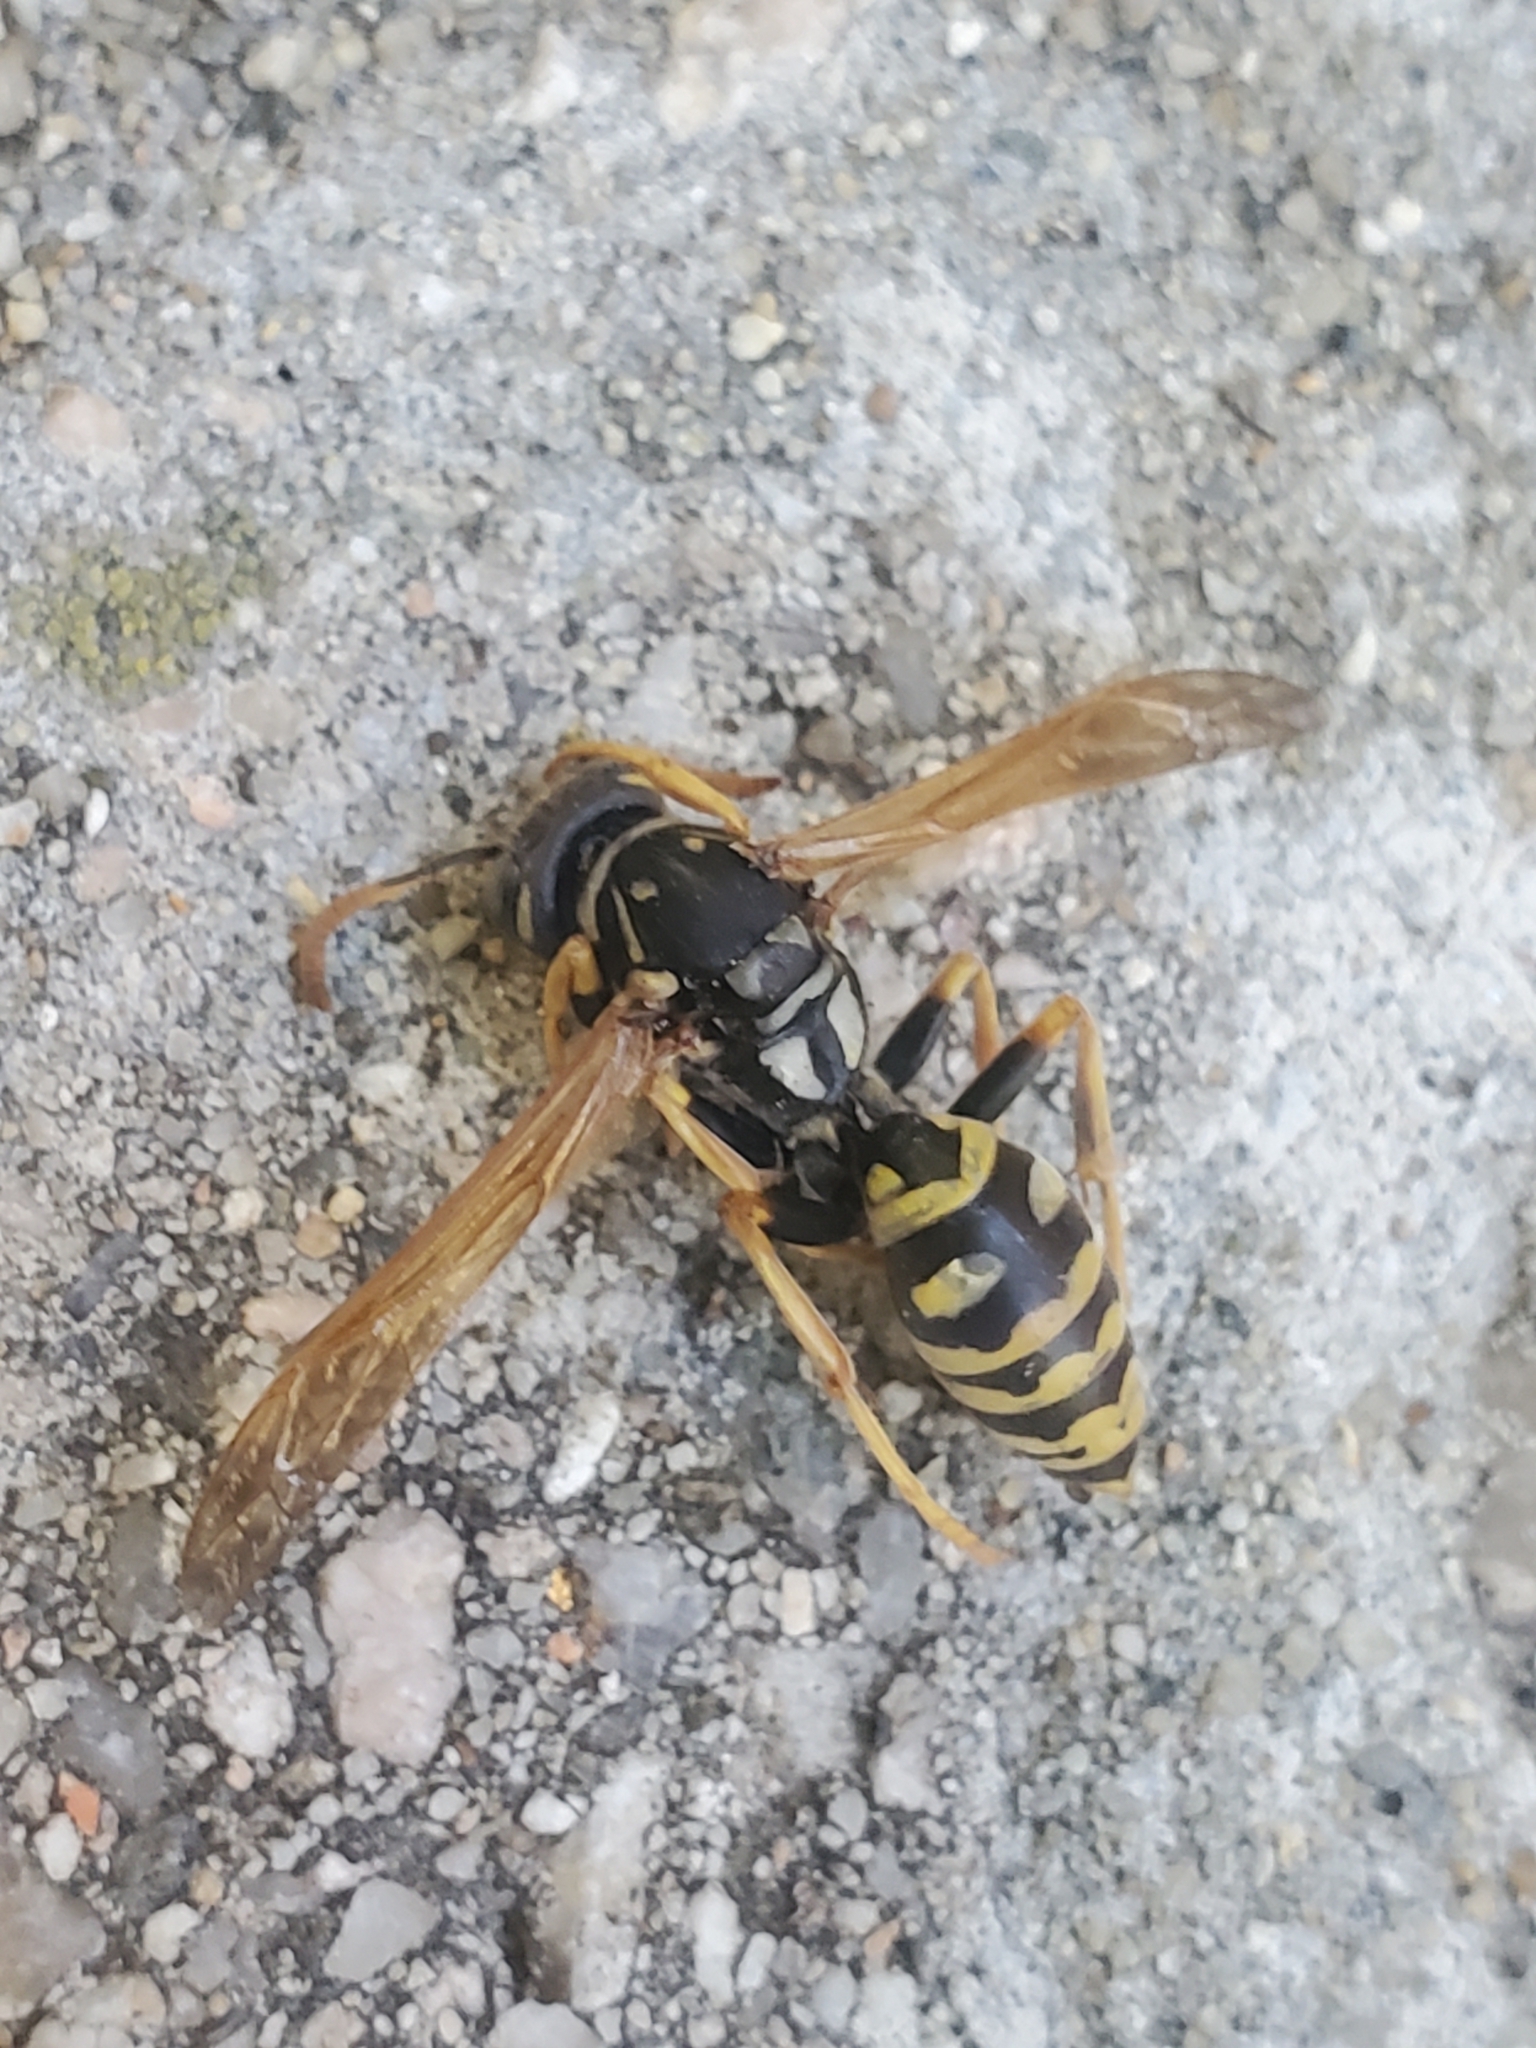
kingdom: Animalia
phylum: Arthropoda
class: Insecta
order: Hymenoptera
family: Eumenidae
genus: Polistes
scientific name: Polistes dominula
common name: Paper wasp
